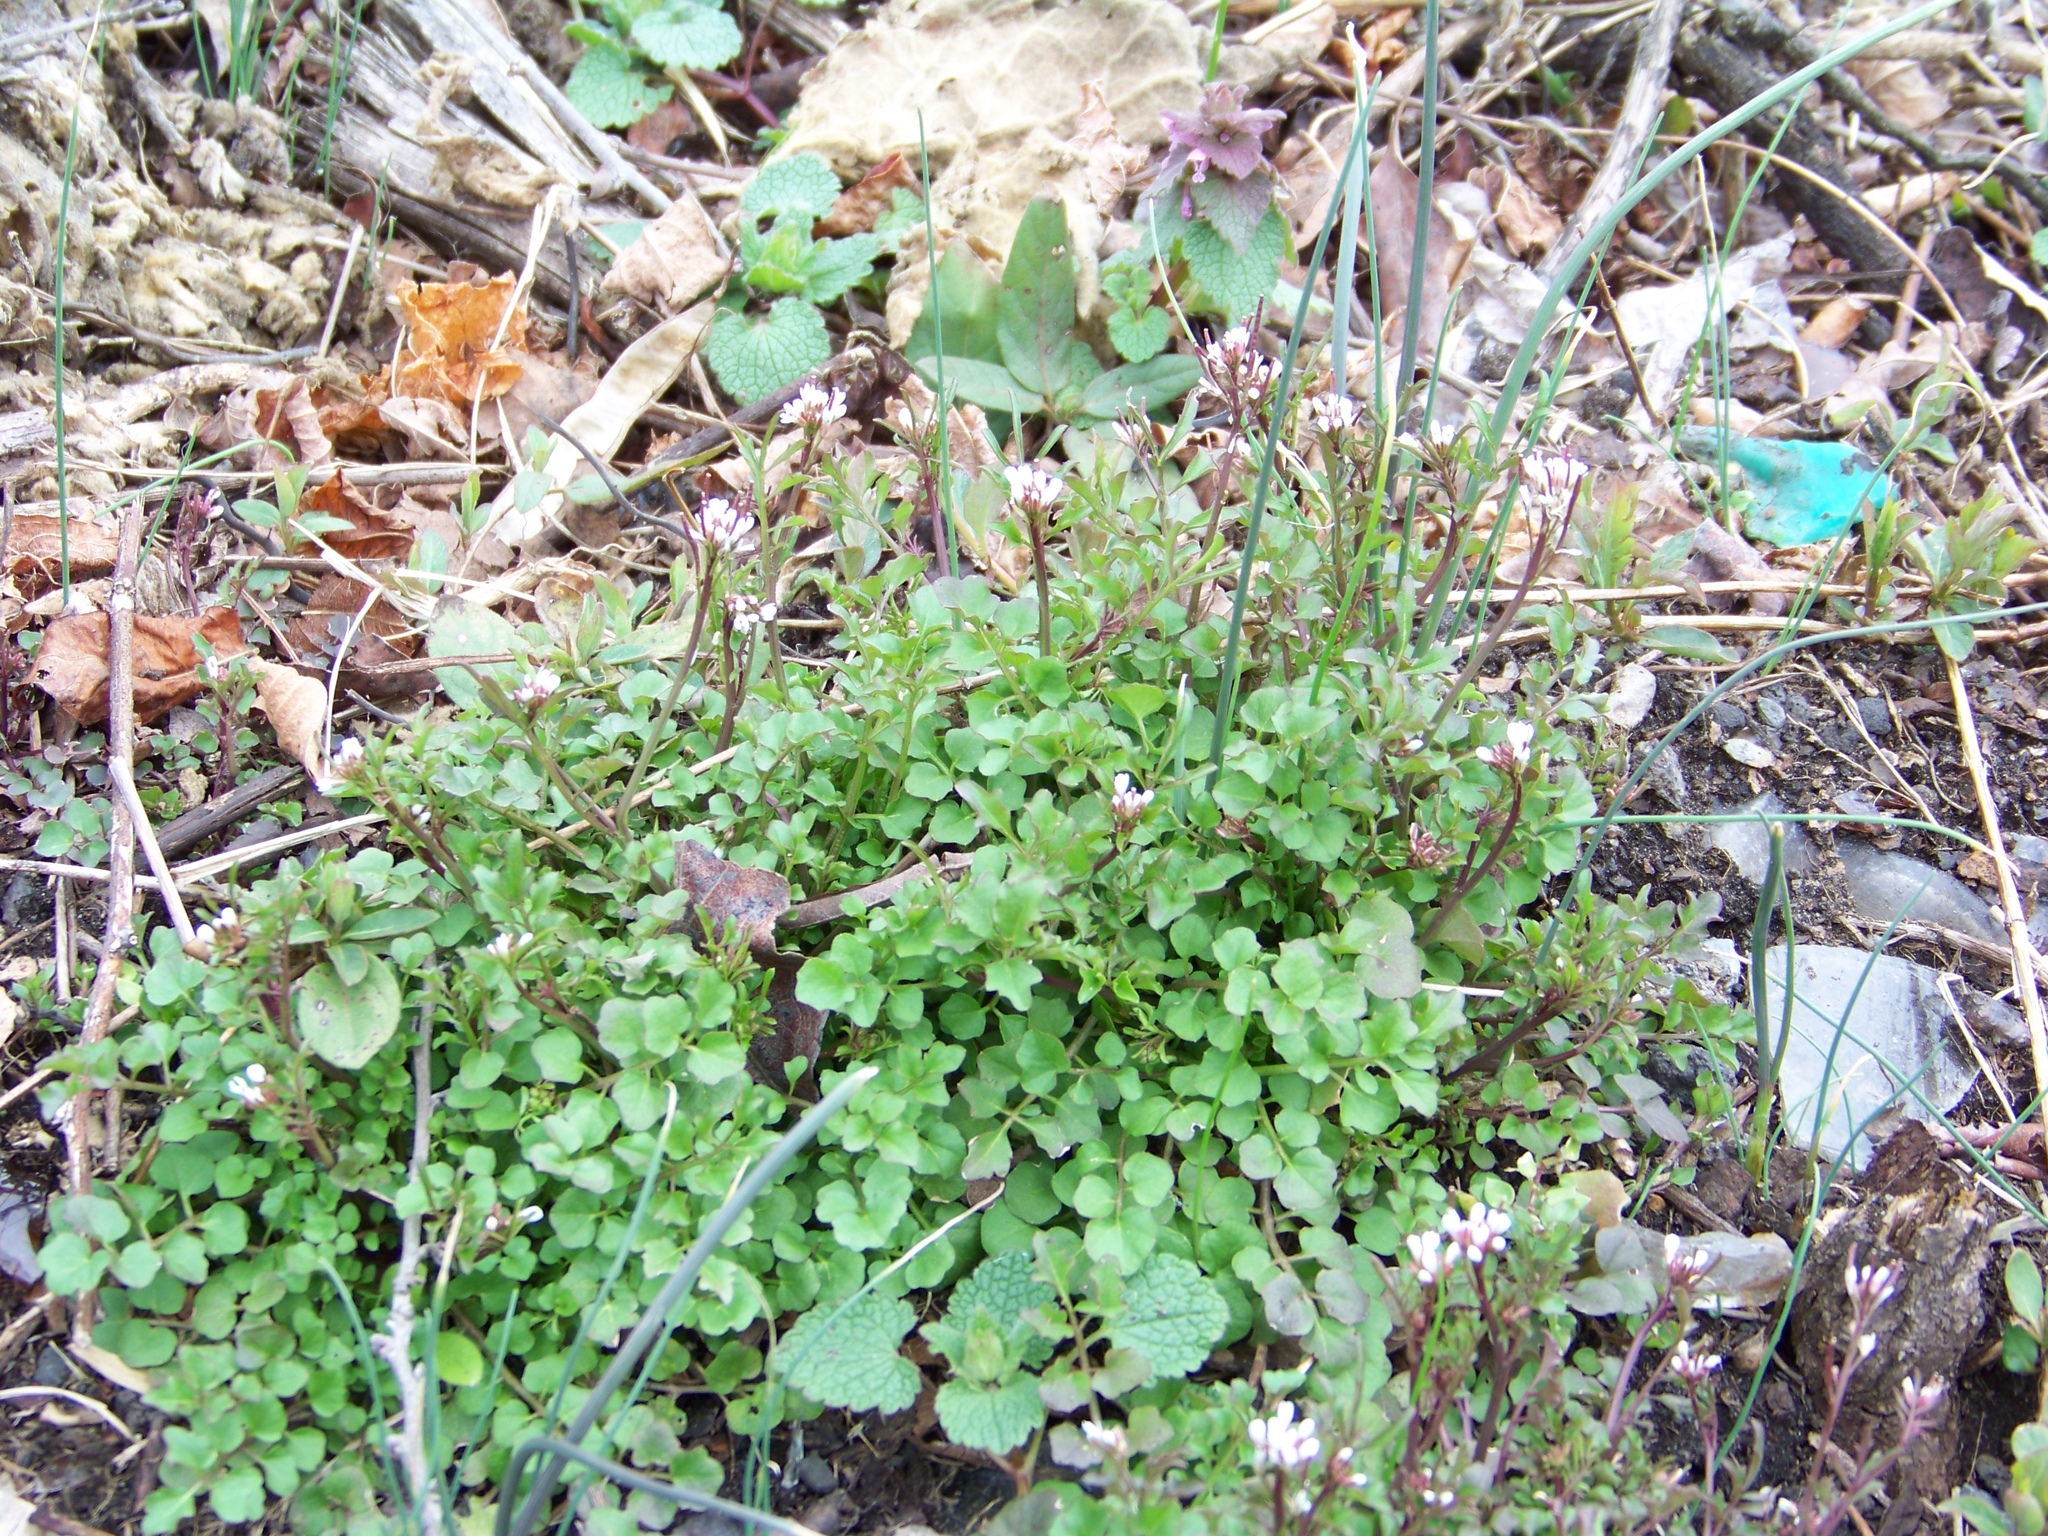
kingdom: Plantae
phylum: Tracheophyta
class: Magnoliopsida
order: Brassicales
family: Brassicaceae
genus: Cardamine
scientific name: Cardamine hirsuta
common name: Hairy bittercress
